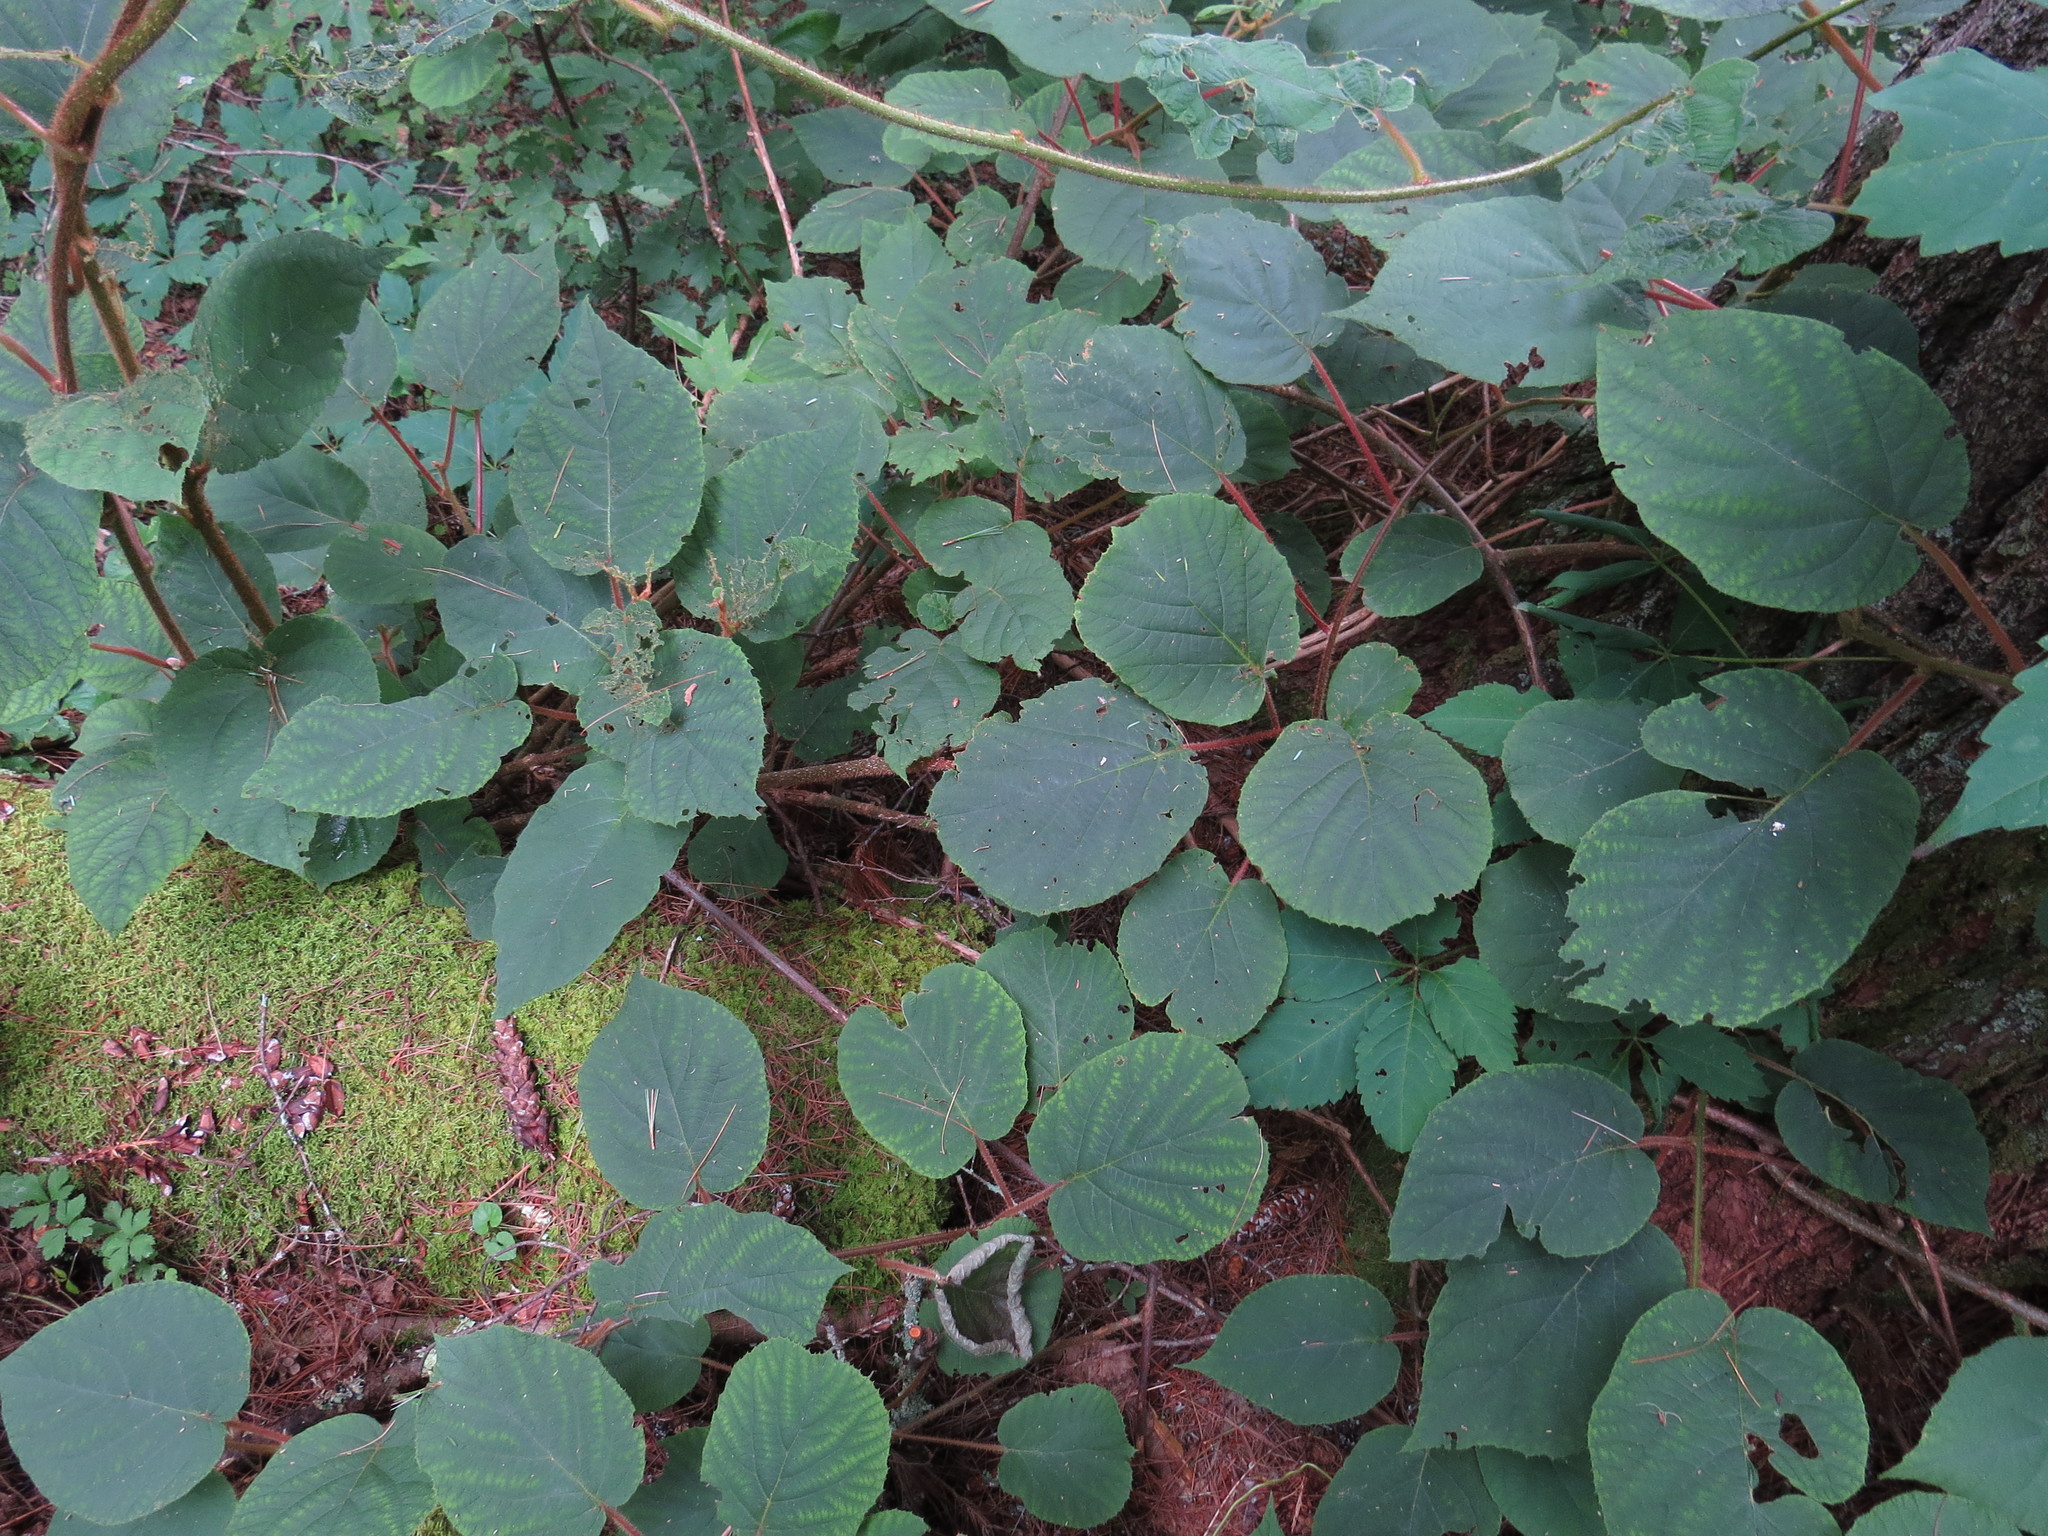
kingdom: Plantae
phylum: Tracheophyta
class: Magnoliopsida
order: Ericales
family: Actinidiaceae
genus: Actinidia
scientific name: Actinidia chinensis
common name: Kiwi
